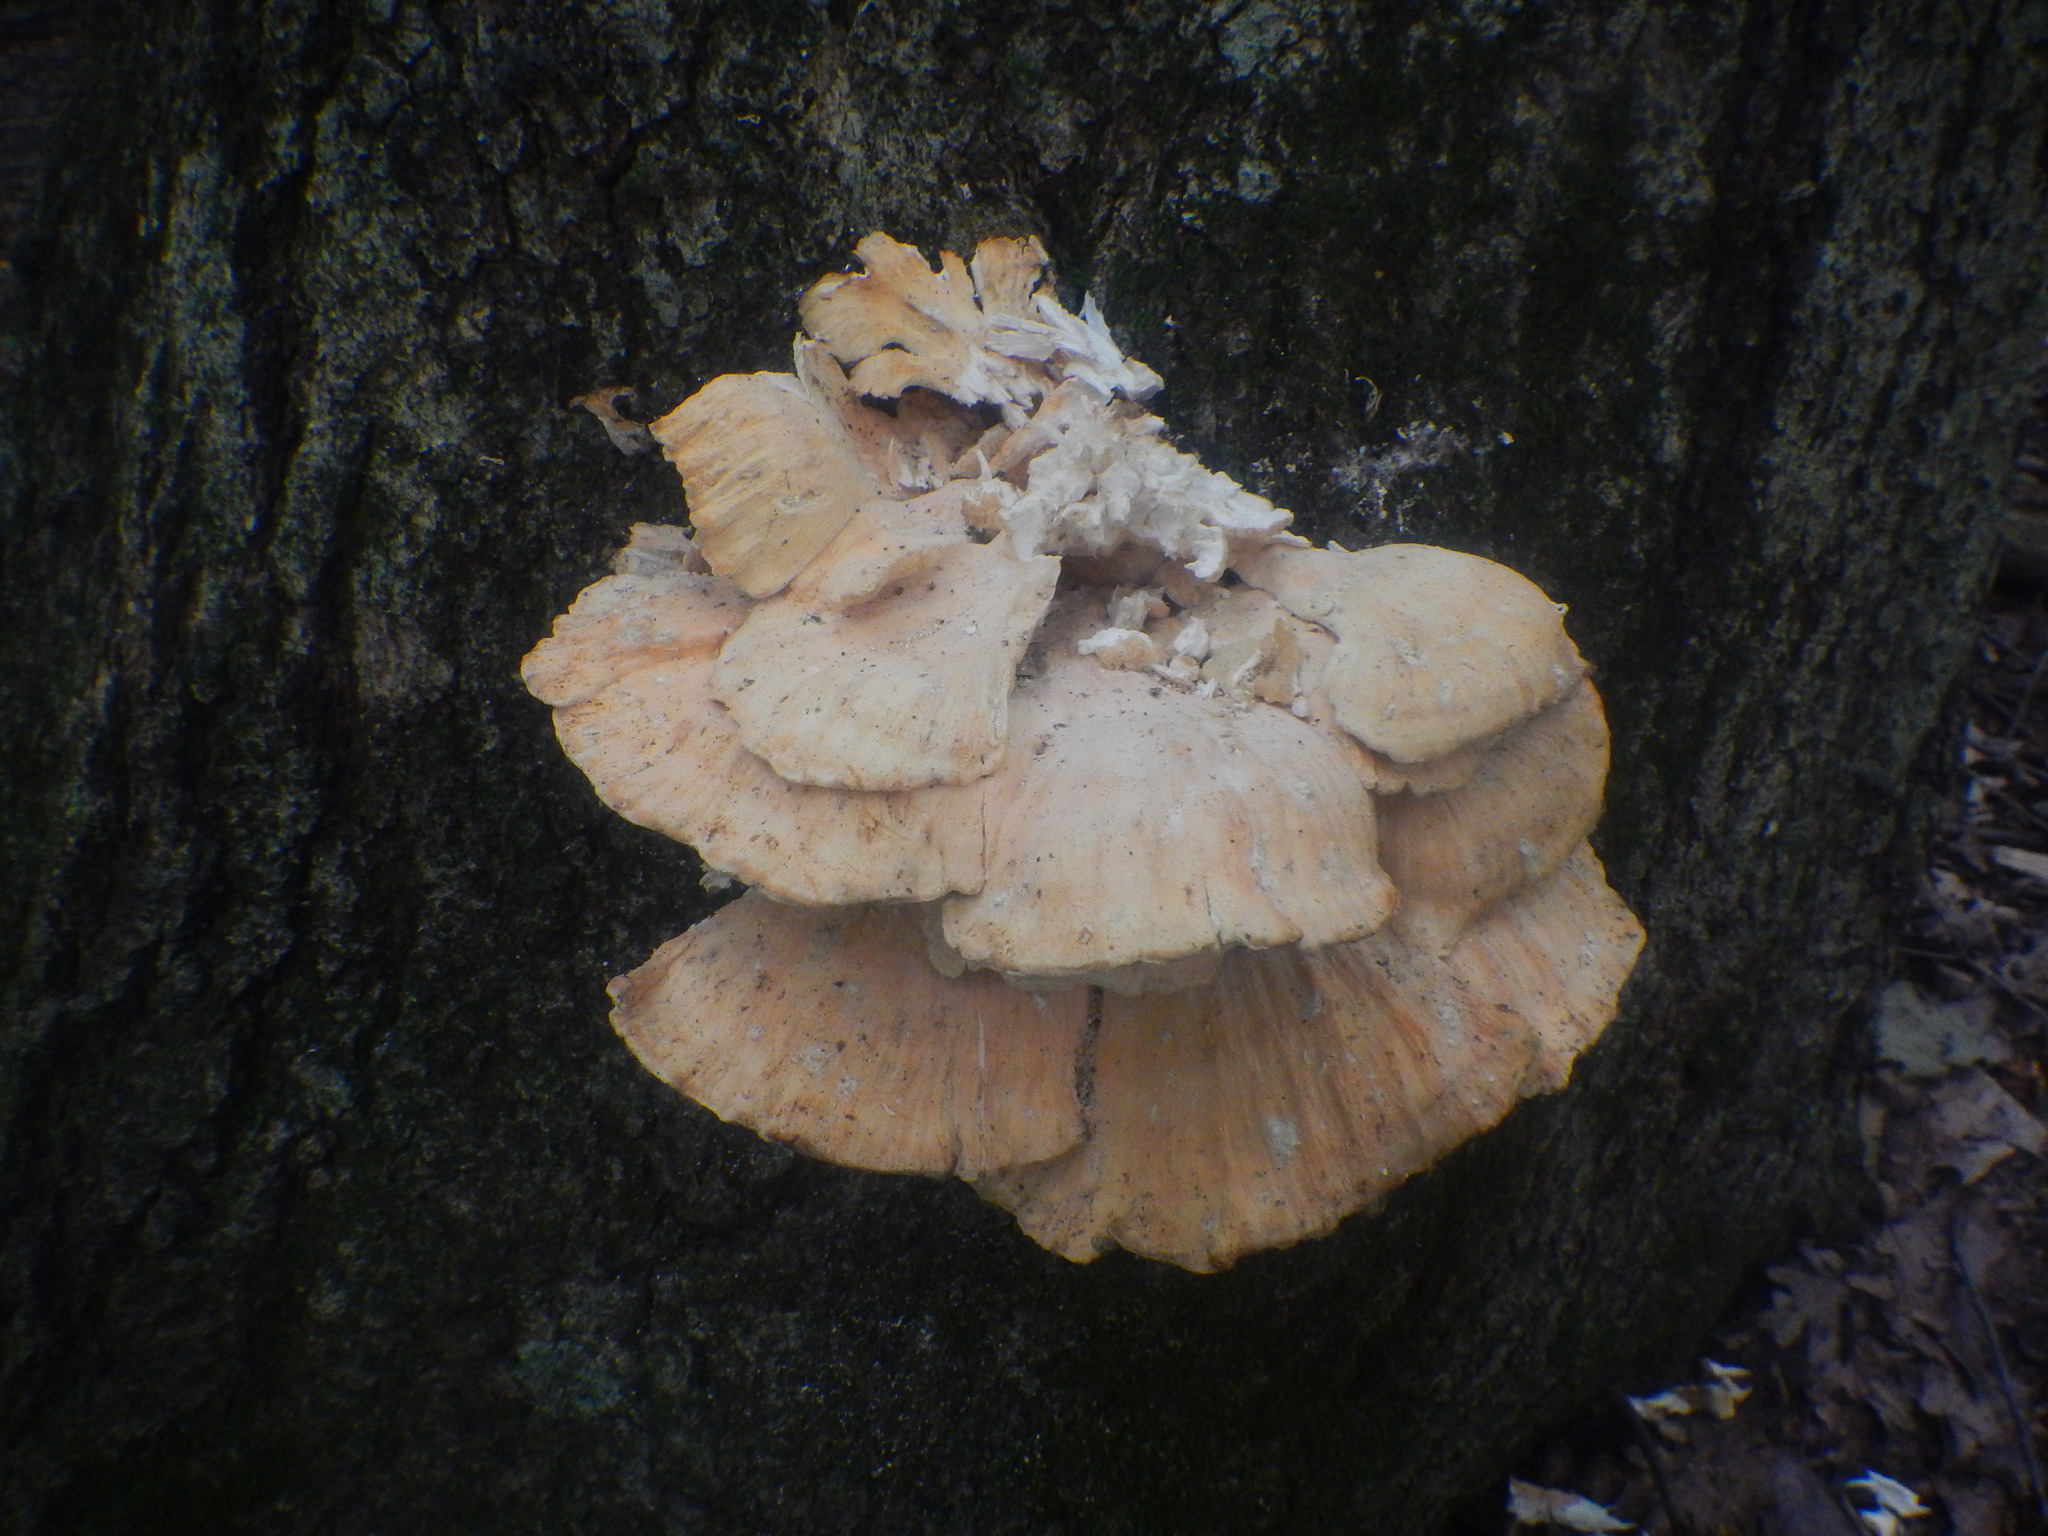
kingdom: Fungi
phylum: Basidiomycota
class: Agaricomycetes
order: Polyporales
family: Laetiporaceae
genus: Laetiporus
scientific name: Laetiporus sulphureus
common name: Chicken of the woods
